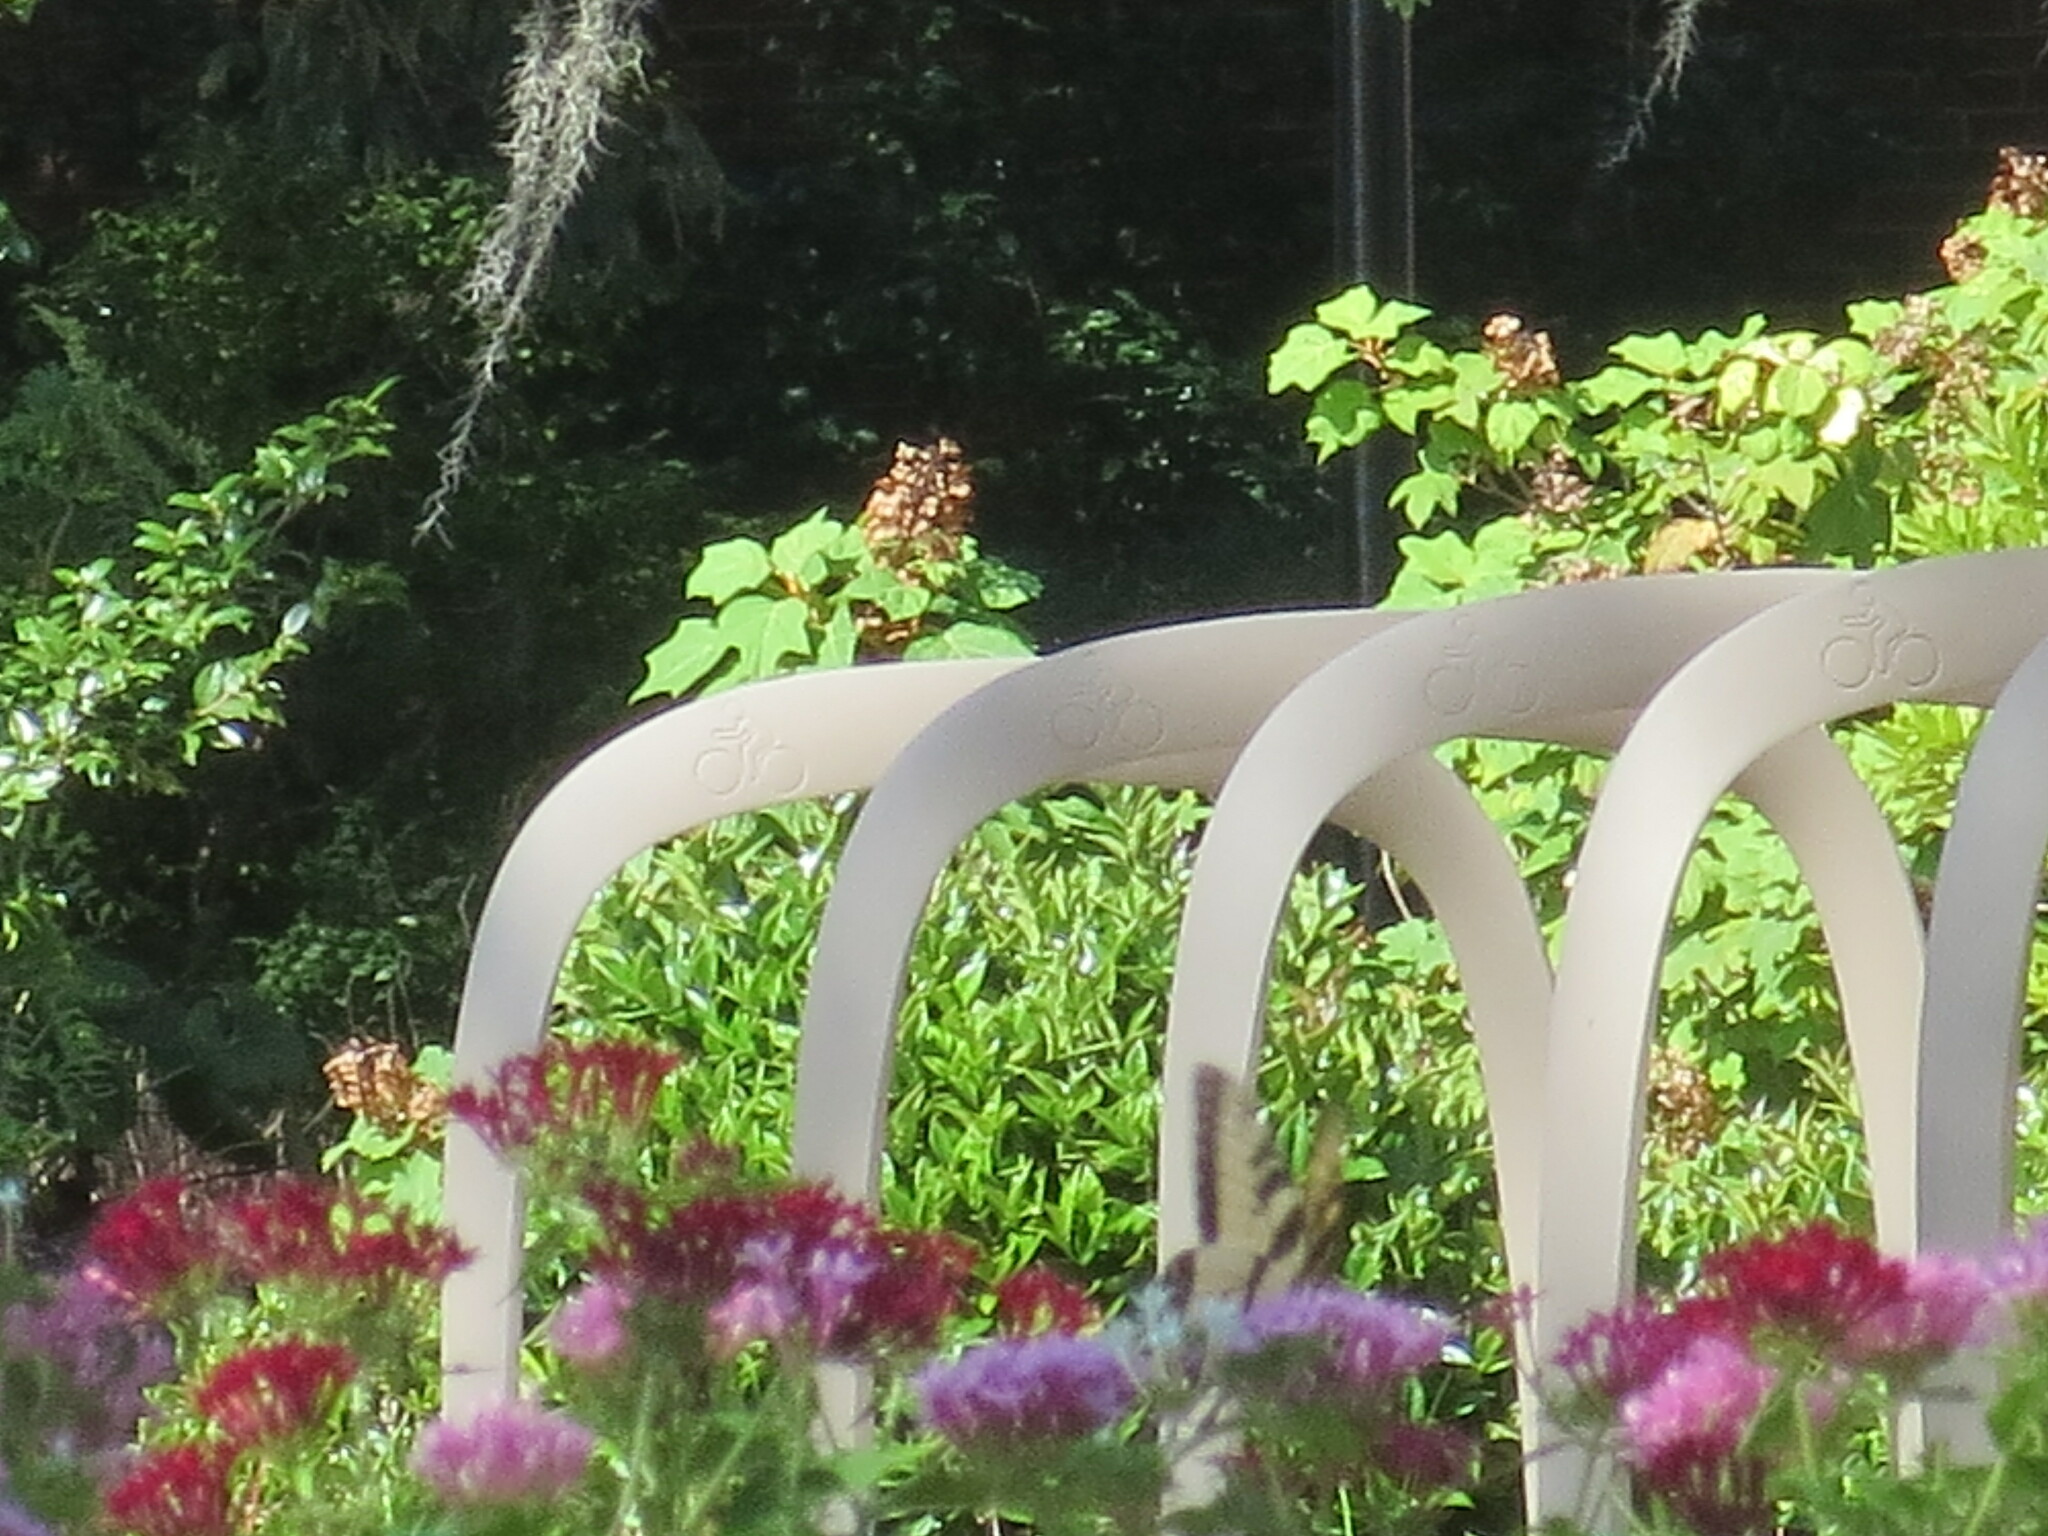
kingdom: Animalia
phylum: Arthropoda
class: Insecta
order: Lepidoptera
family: Papilionidae
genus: Papilio
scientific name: Papilio glaucus
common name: Tiger swallowtail
